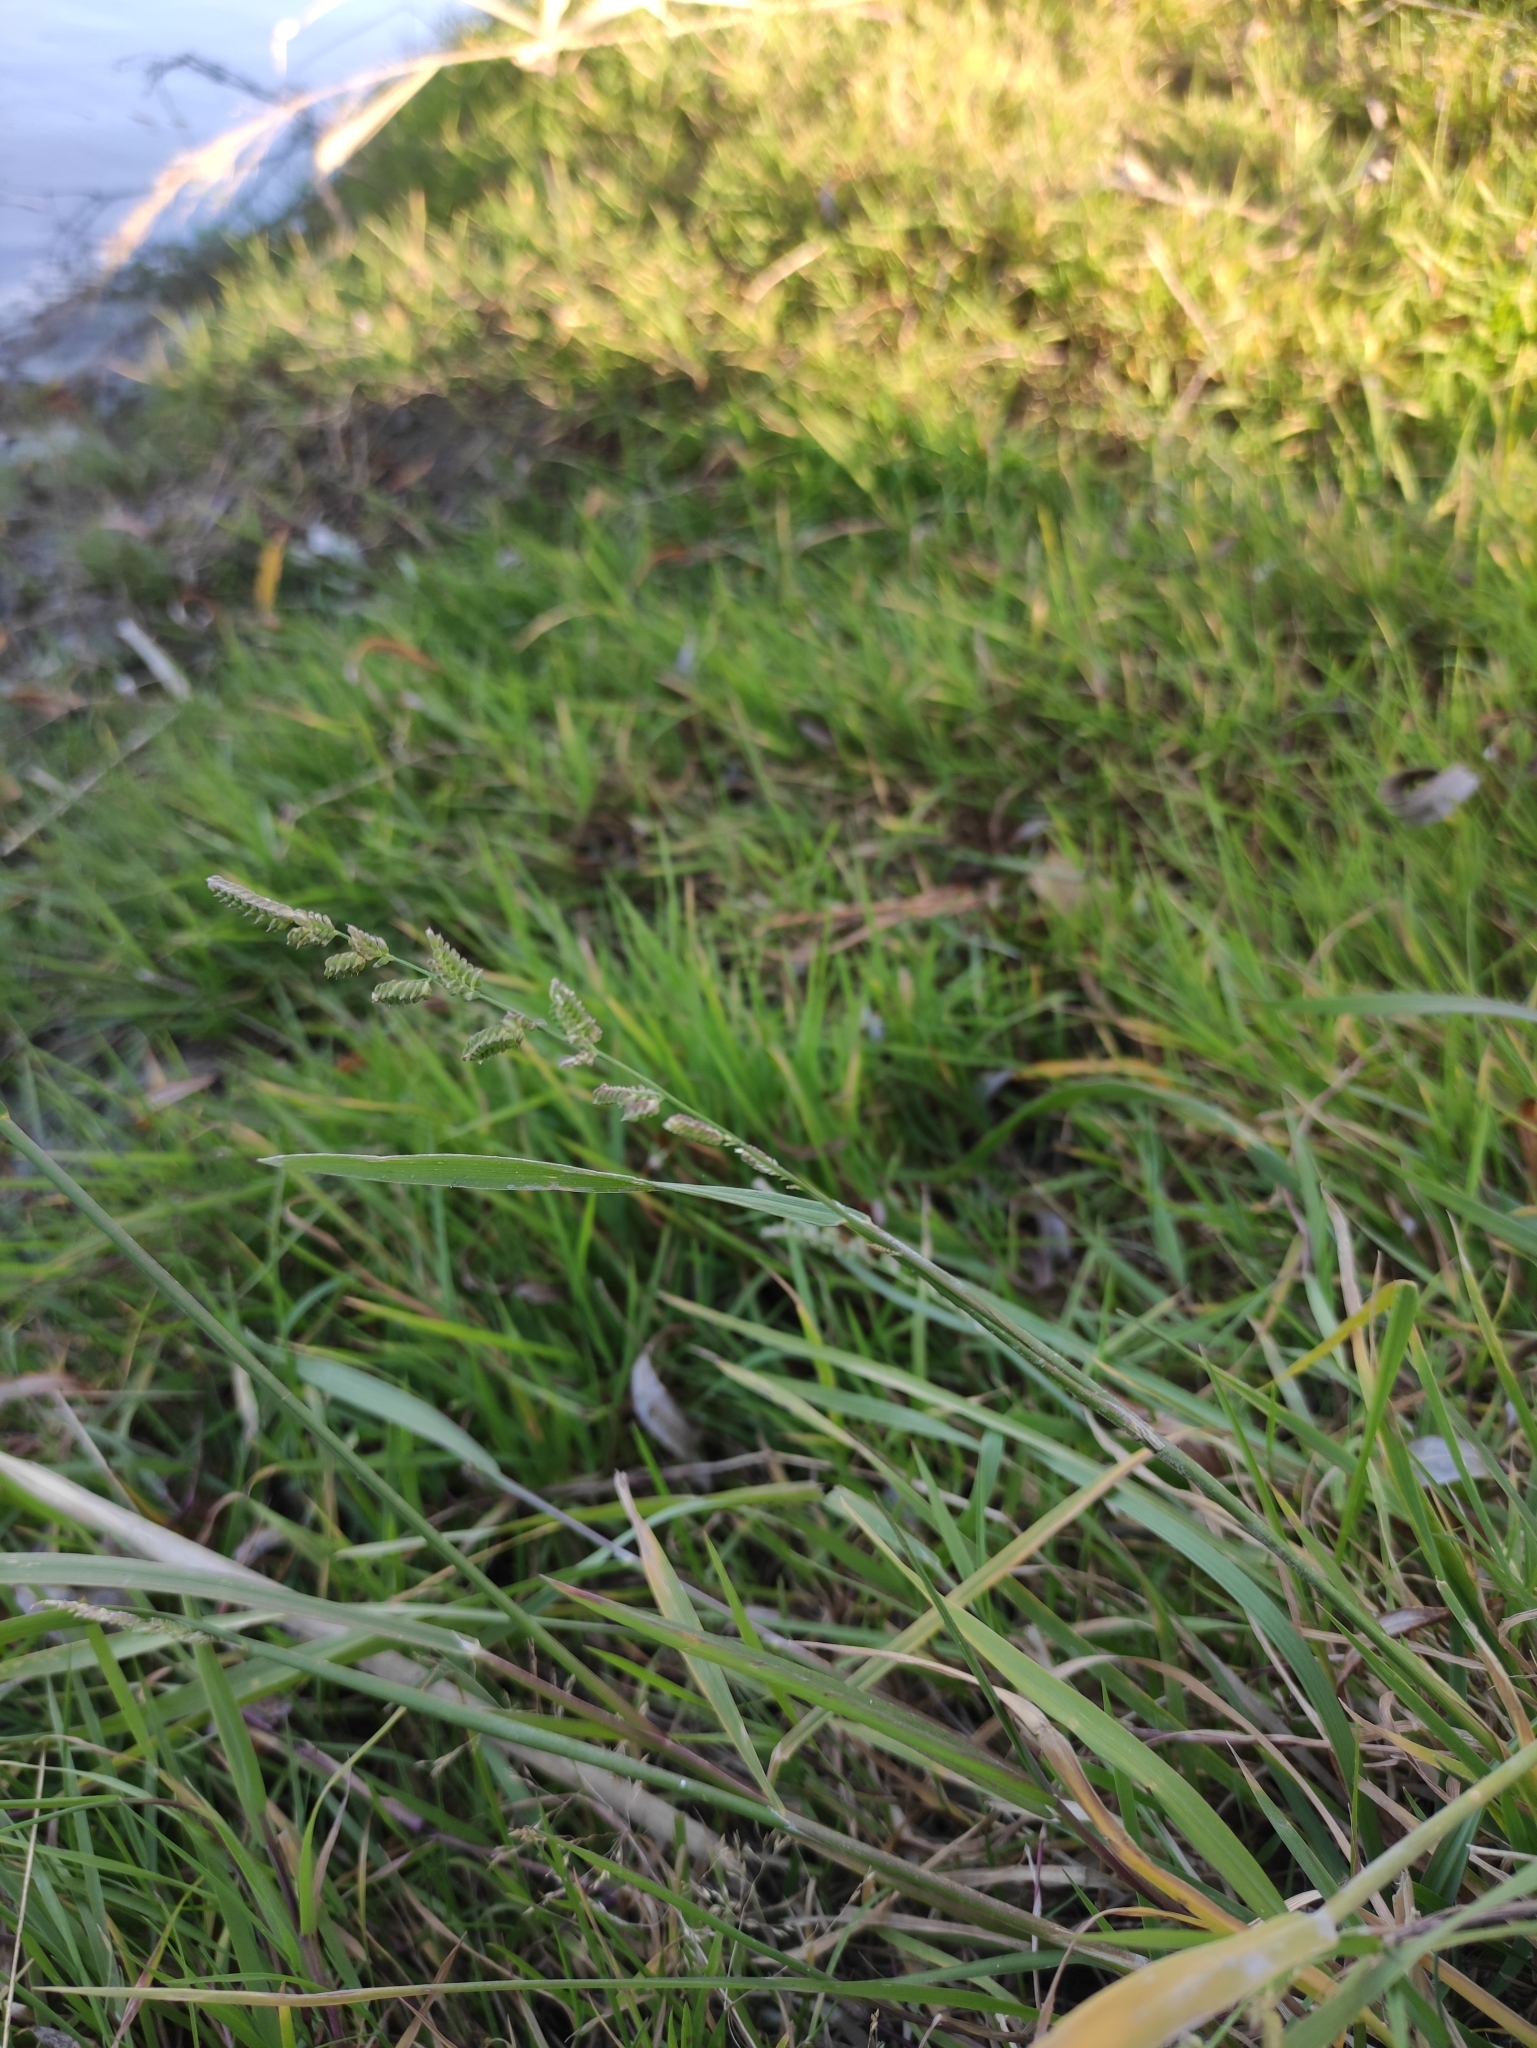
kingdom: Plantae
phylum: Tracheophyta
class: Liliopsida
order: Poales
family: Poaceae
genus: Beckmannia
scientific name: Beckmannia syzigachne
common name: American slough-grass
